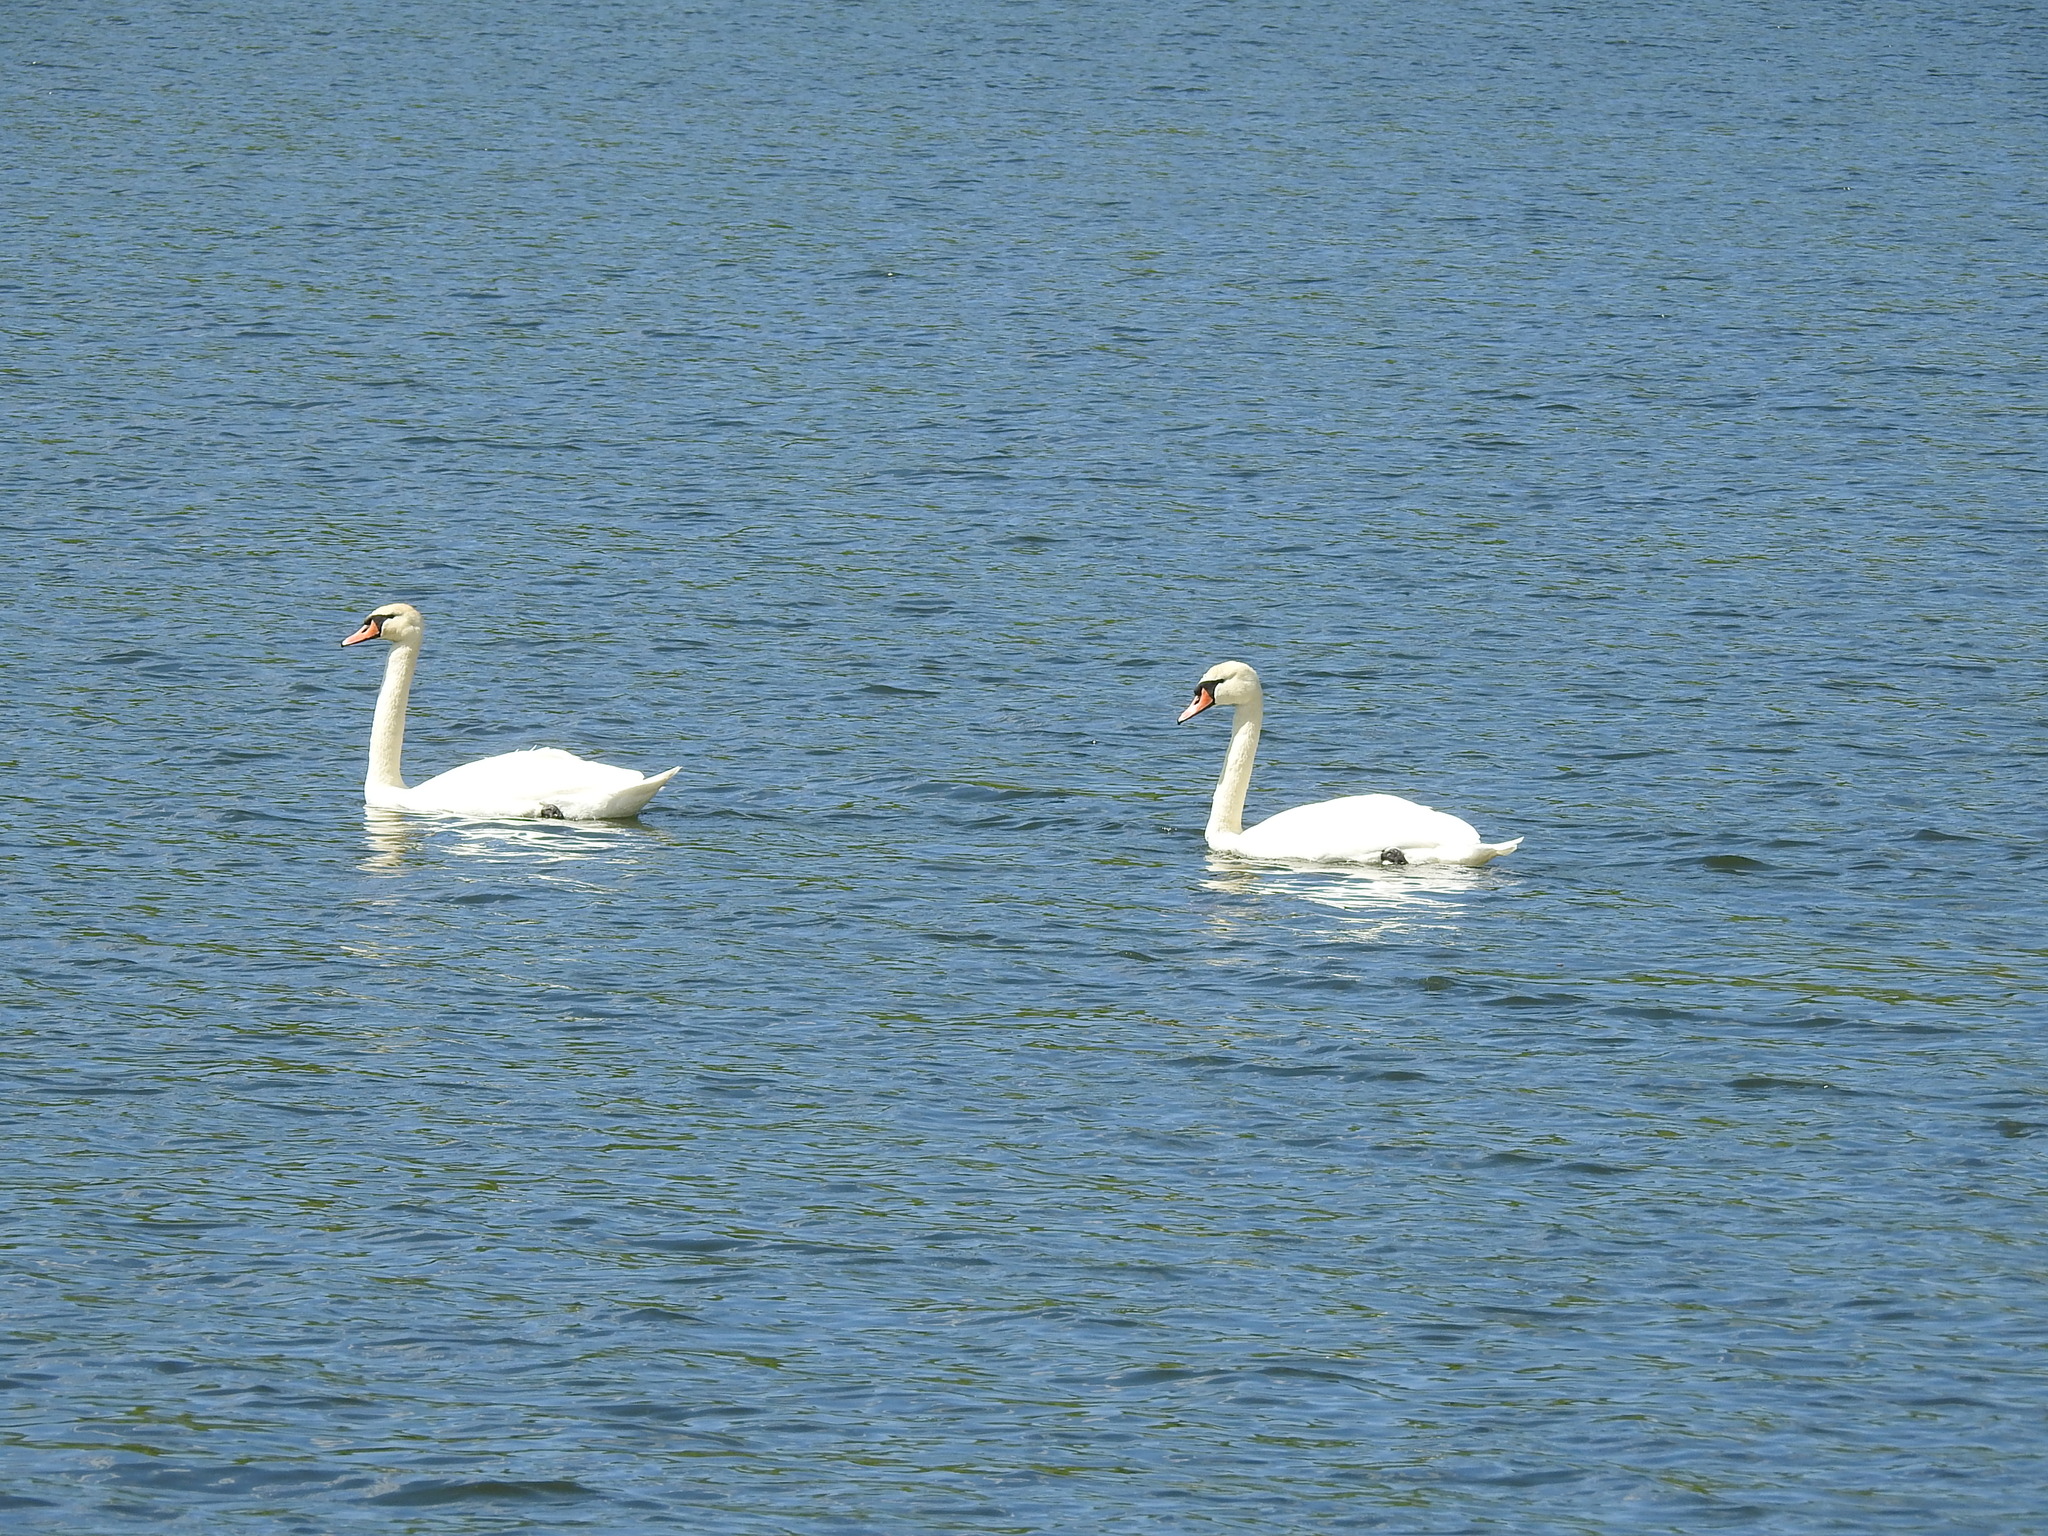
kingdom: Animalia
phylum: Chordata
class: Aves
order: Anseriformes
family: Anatidae
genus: Cygnus
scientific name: Cygnus olor
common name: Mute swan
